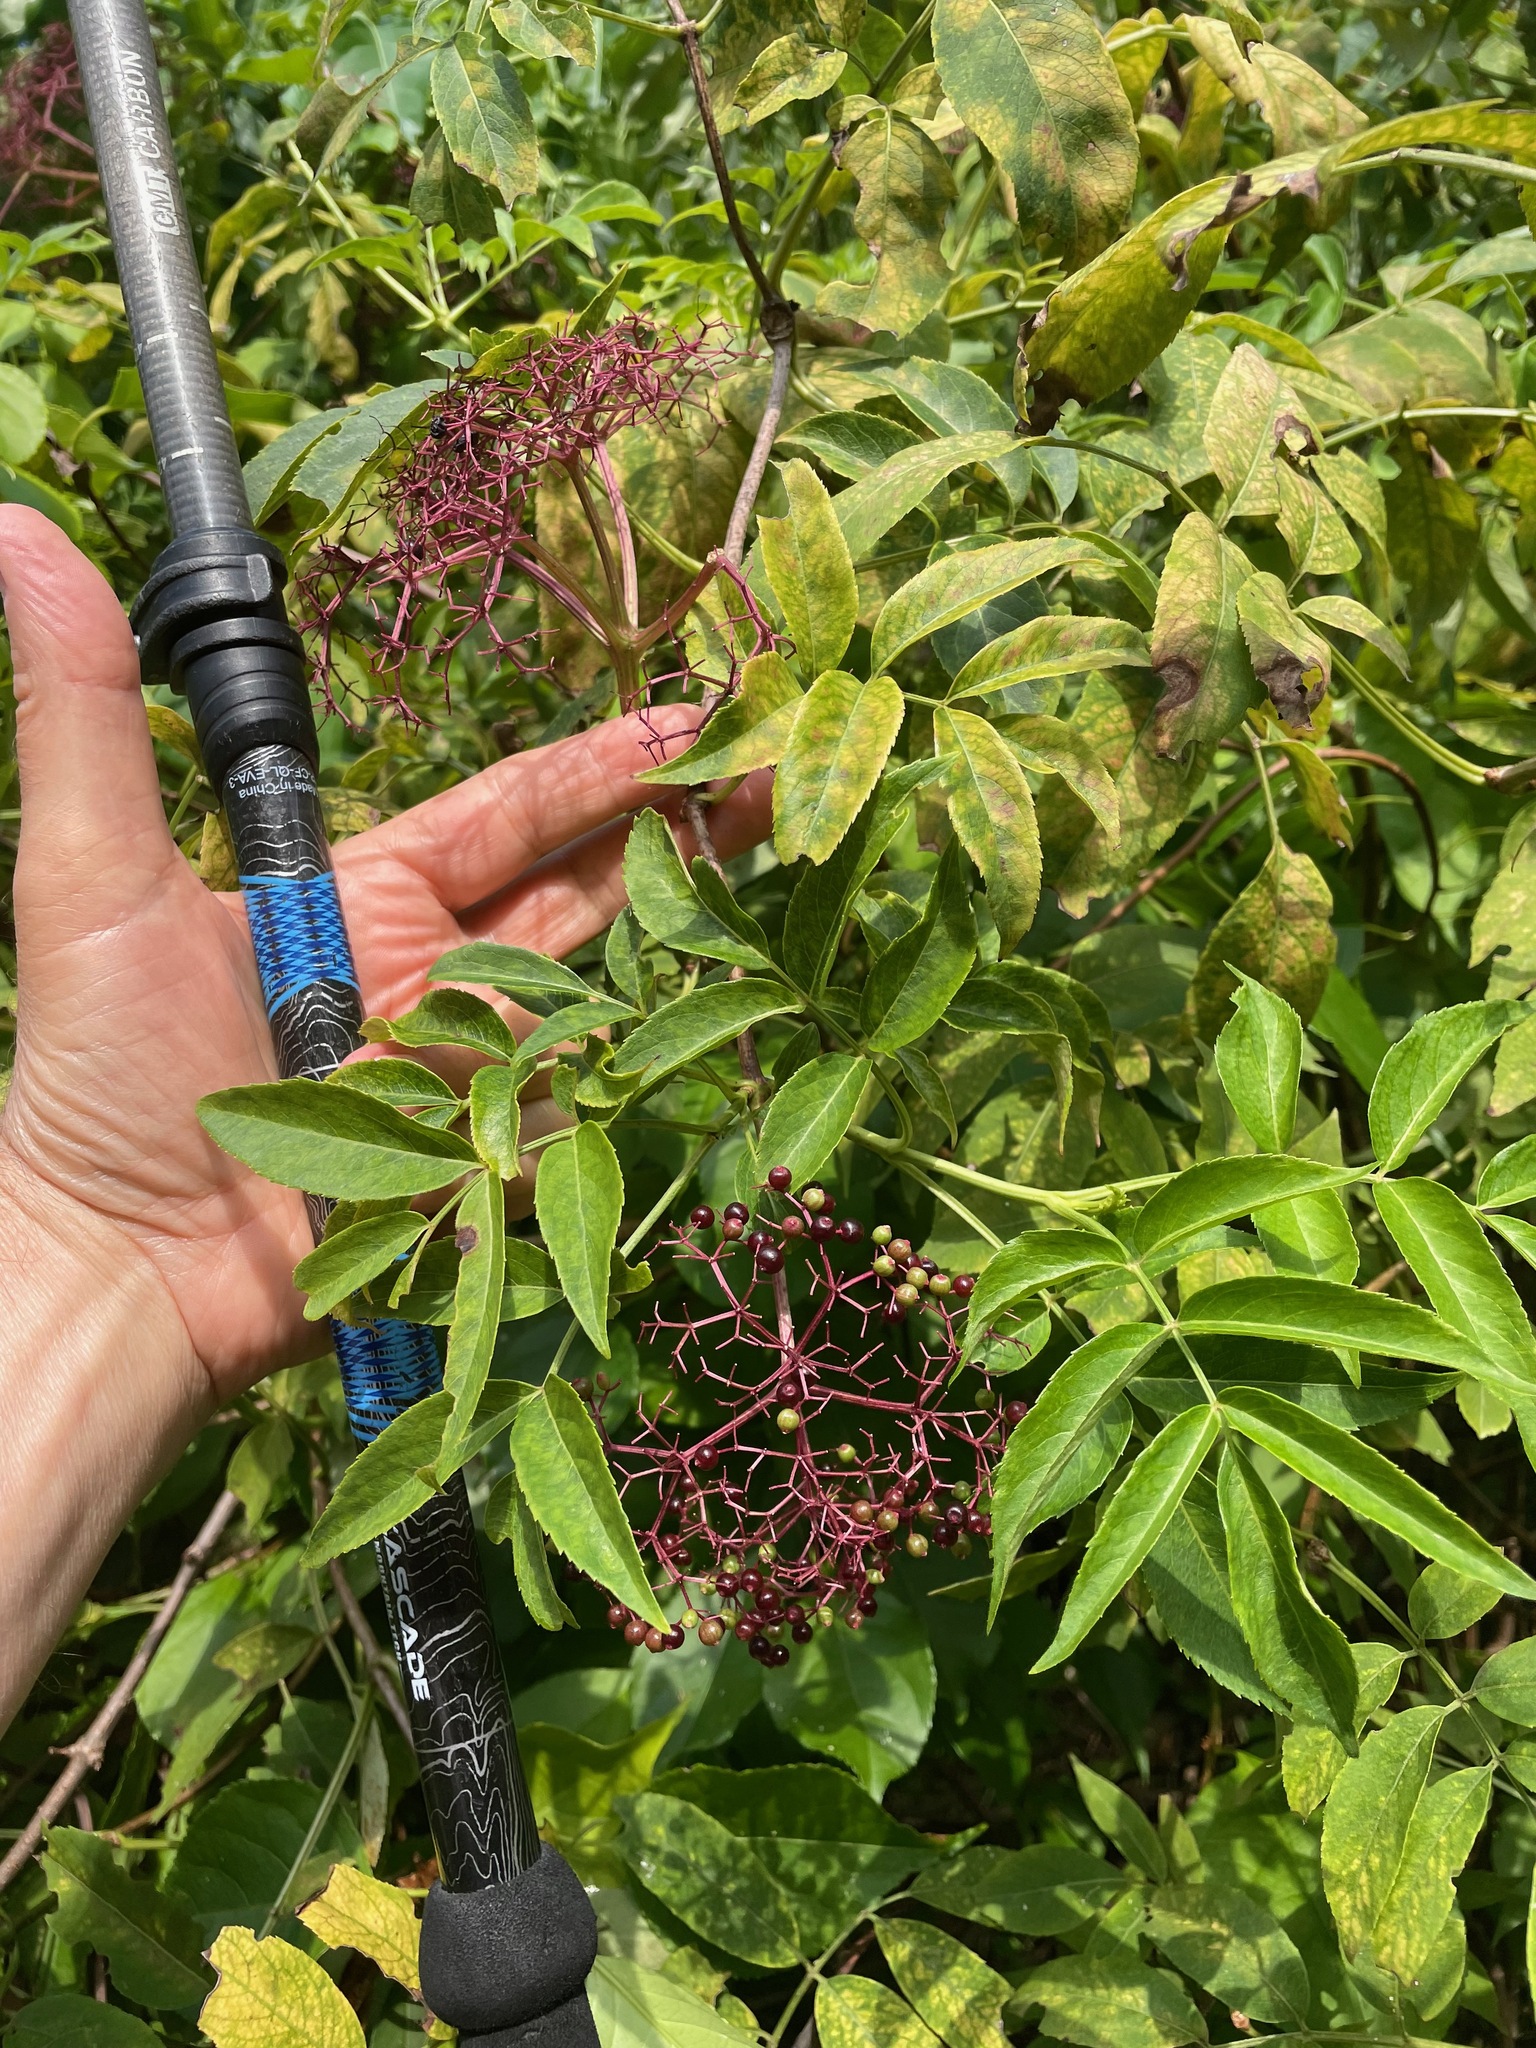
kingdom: Plantae
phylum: Tracheophyta
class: Magnoliopsida
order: Dipsacales
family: Viburnaceae
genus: Sambucus
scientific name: Sambucus canadensis
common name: American elder
